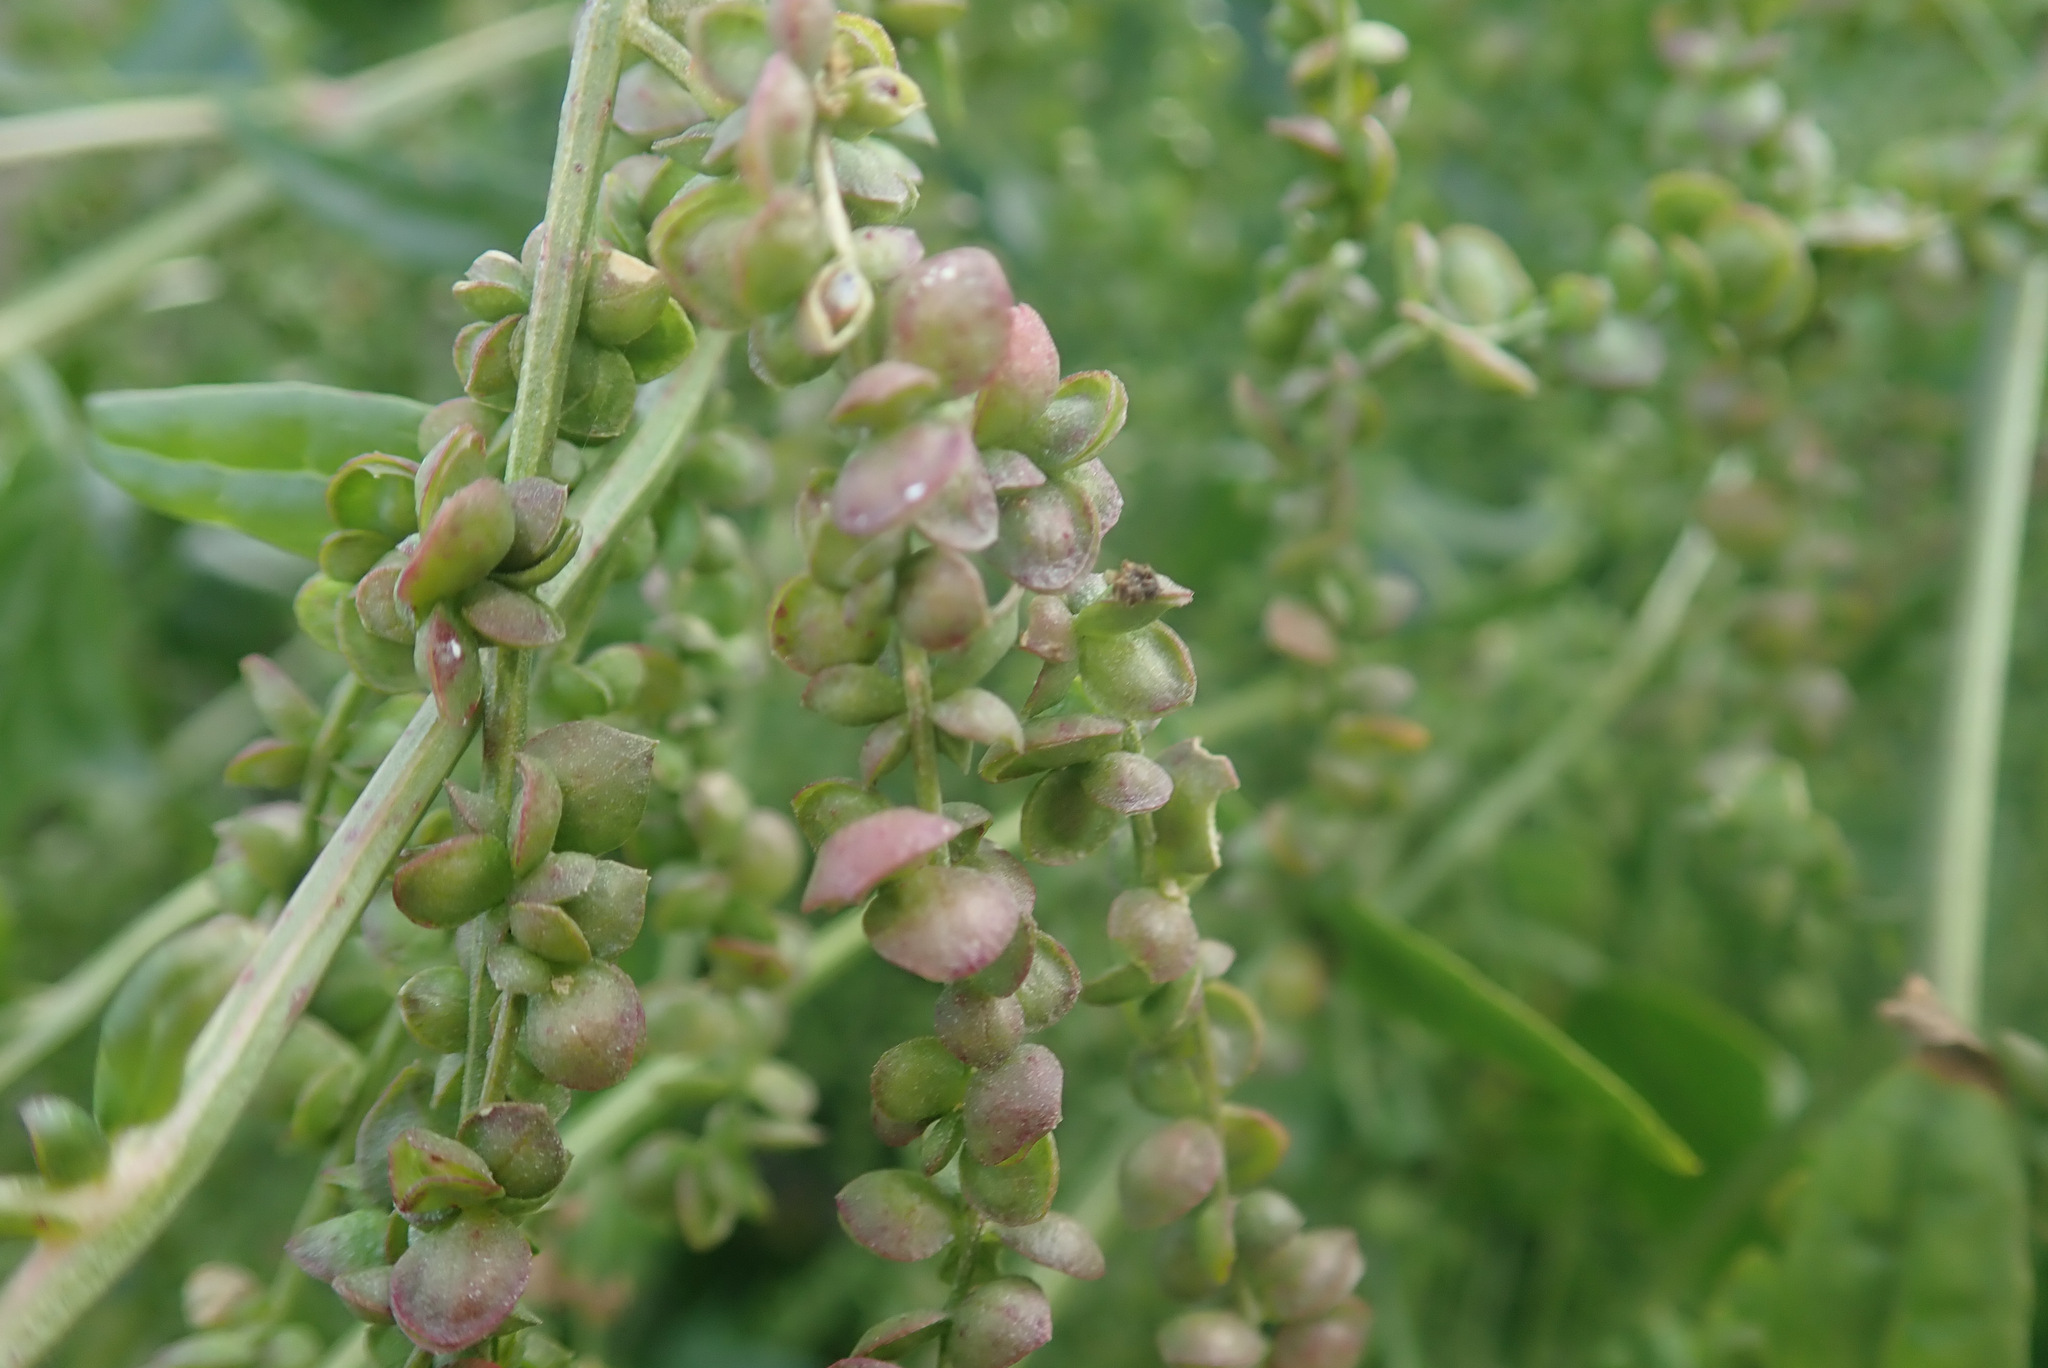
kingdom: Plantae
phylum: Tracheophyta
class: Magnoliopsida
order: Caryophyllales
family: Amaranthaceae
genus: Atriplex
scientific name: Atriplex hortensis
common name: Garden orache
